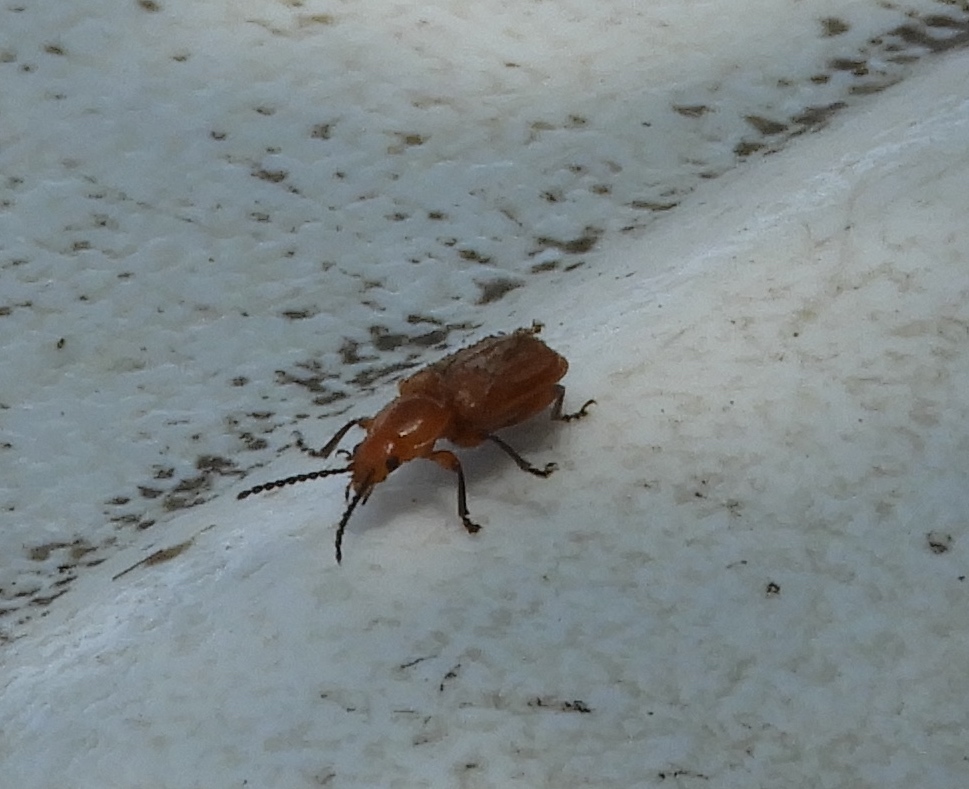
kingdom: Animalia
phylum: Arthropoda
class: Insecta
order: Coleoptera
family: Orsodacnidae
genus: Aulacoscelis
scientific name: Aulacoscelis
